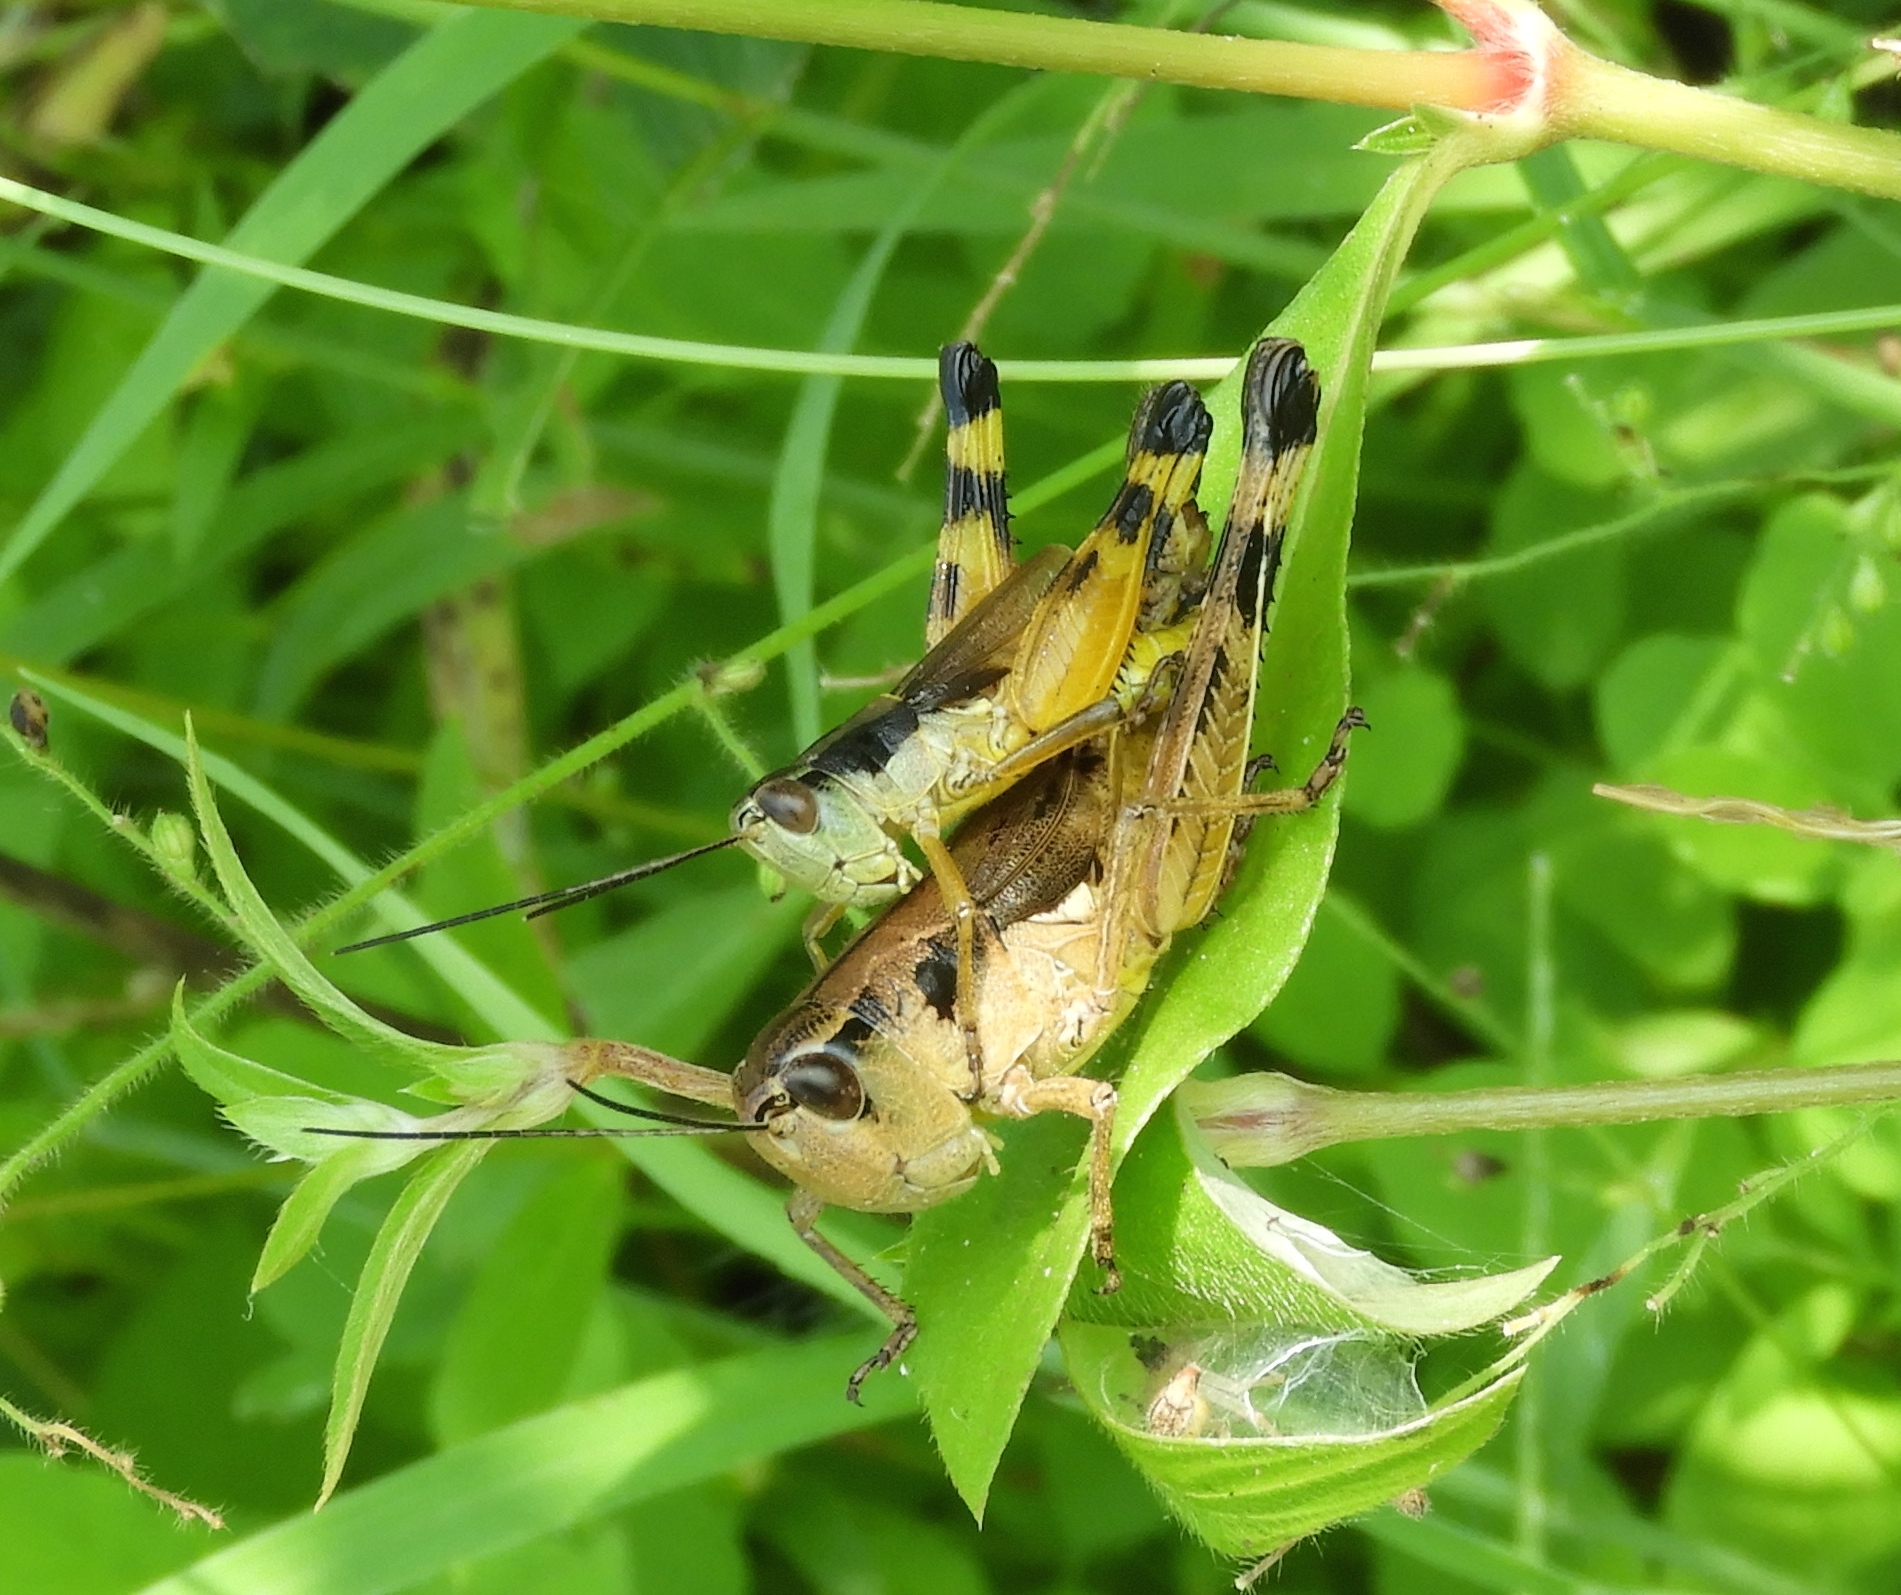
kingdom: Animalia
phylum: Arthropoda
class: Insecta
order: Orthoptera
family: Acrididae
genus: Boopedon
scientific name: Boopedon flaviventris
